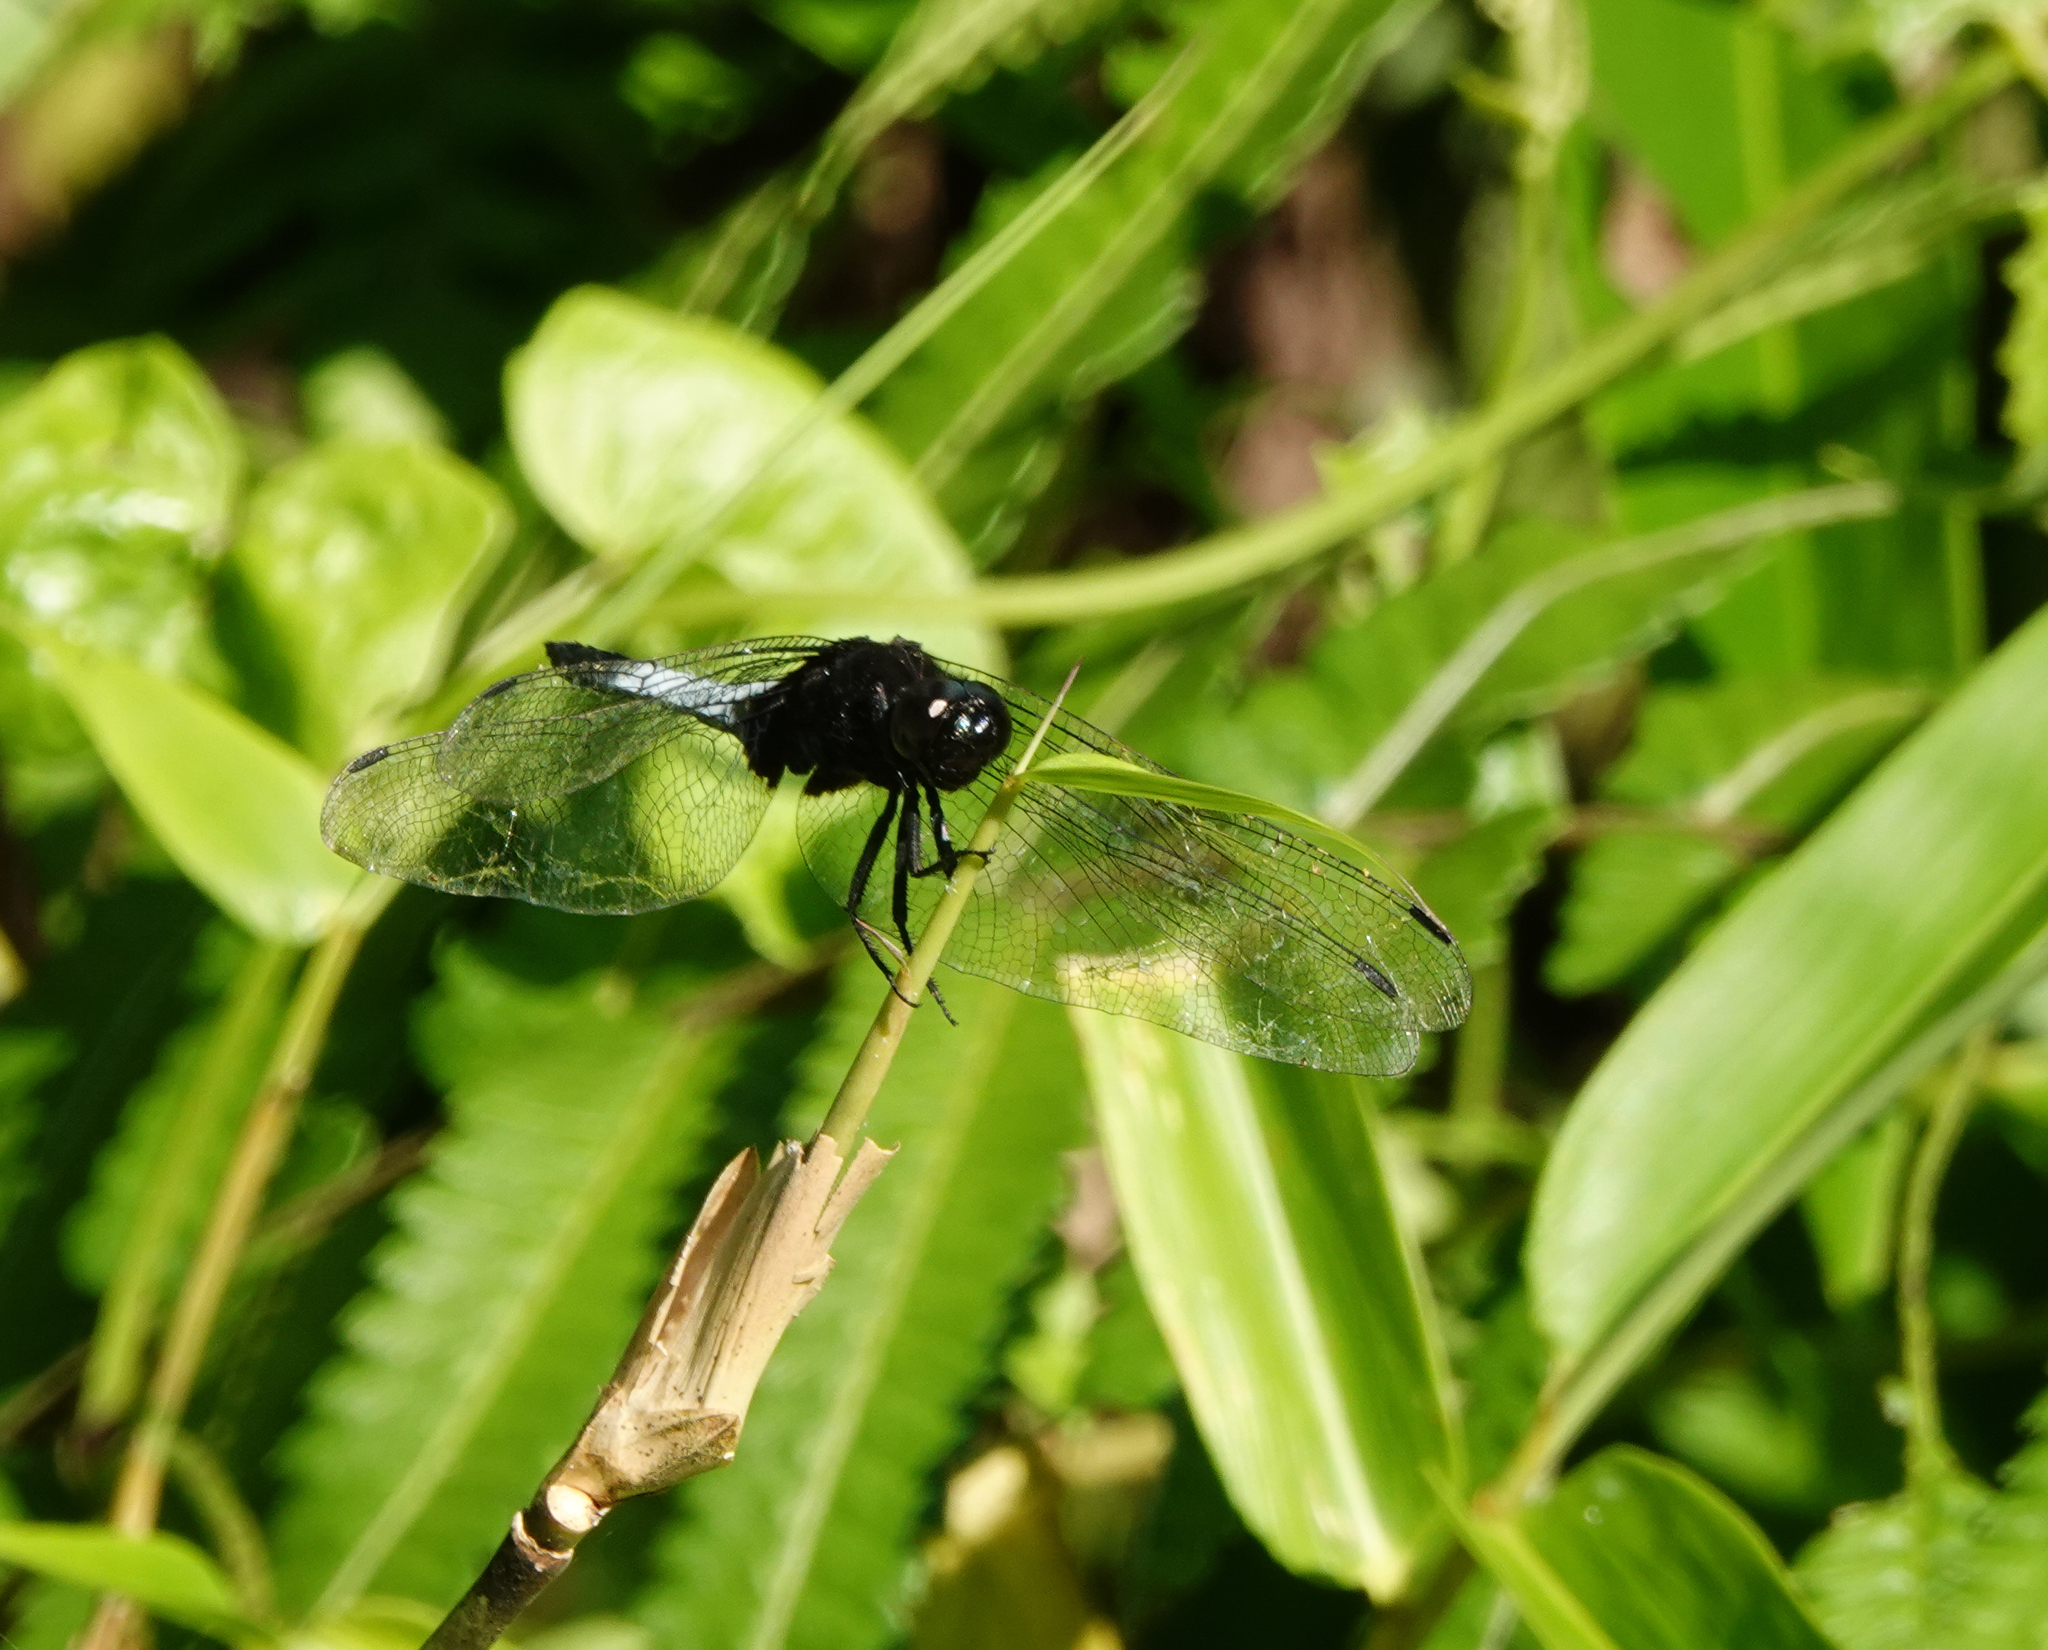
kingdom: Animalia
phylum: Arthropoda
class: Insecta
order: Odonata
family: Libellulidae
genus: Orthetrum
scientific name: Orthetrum triangulare
